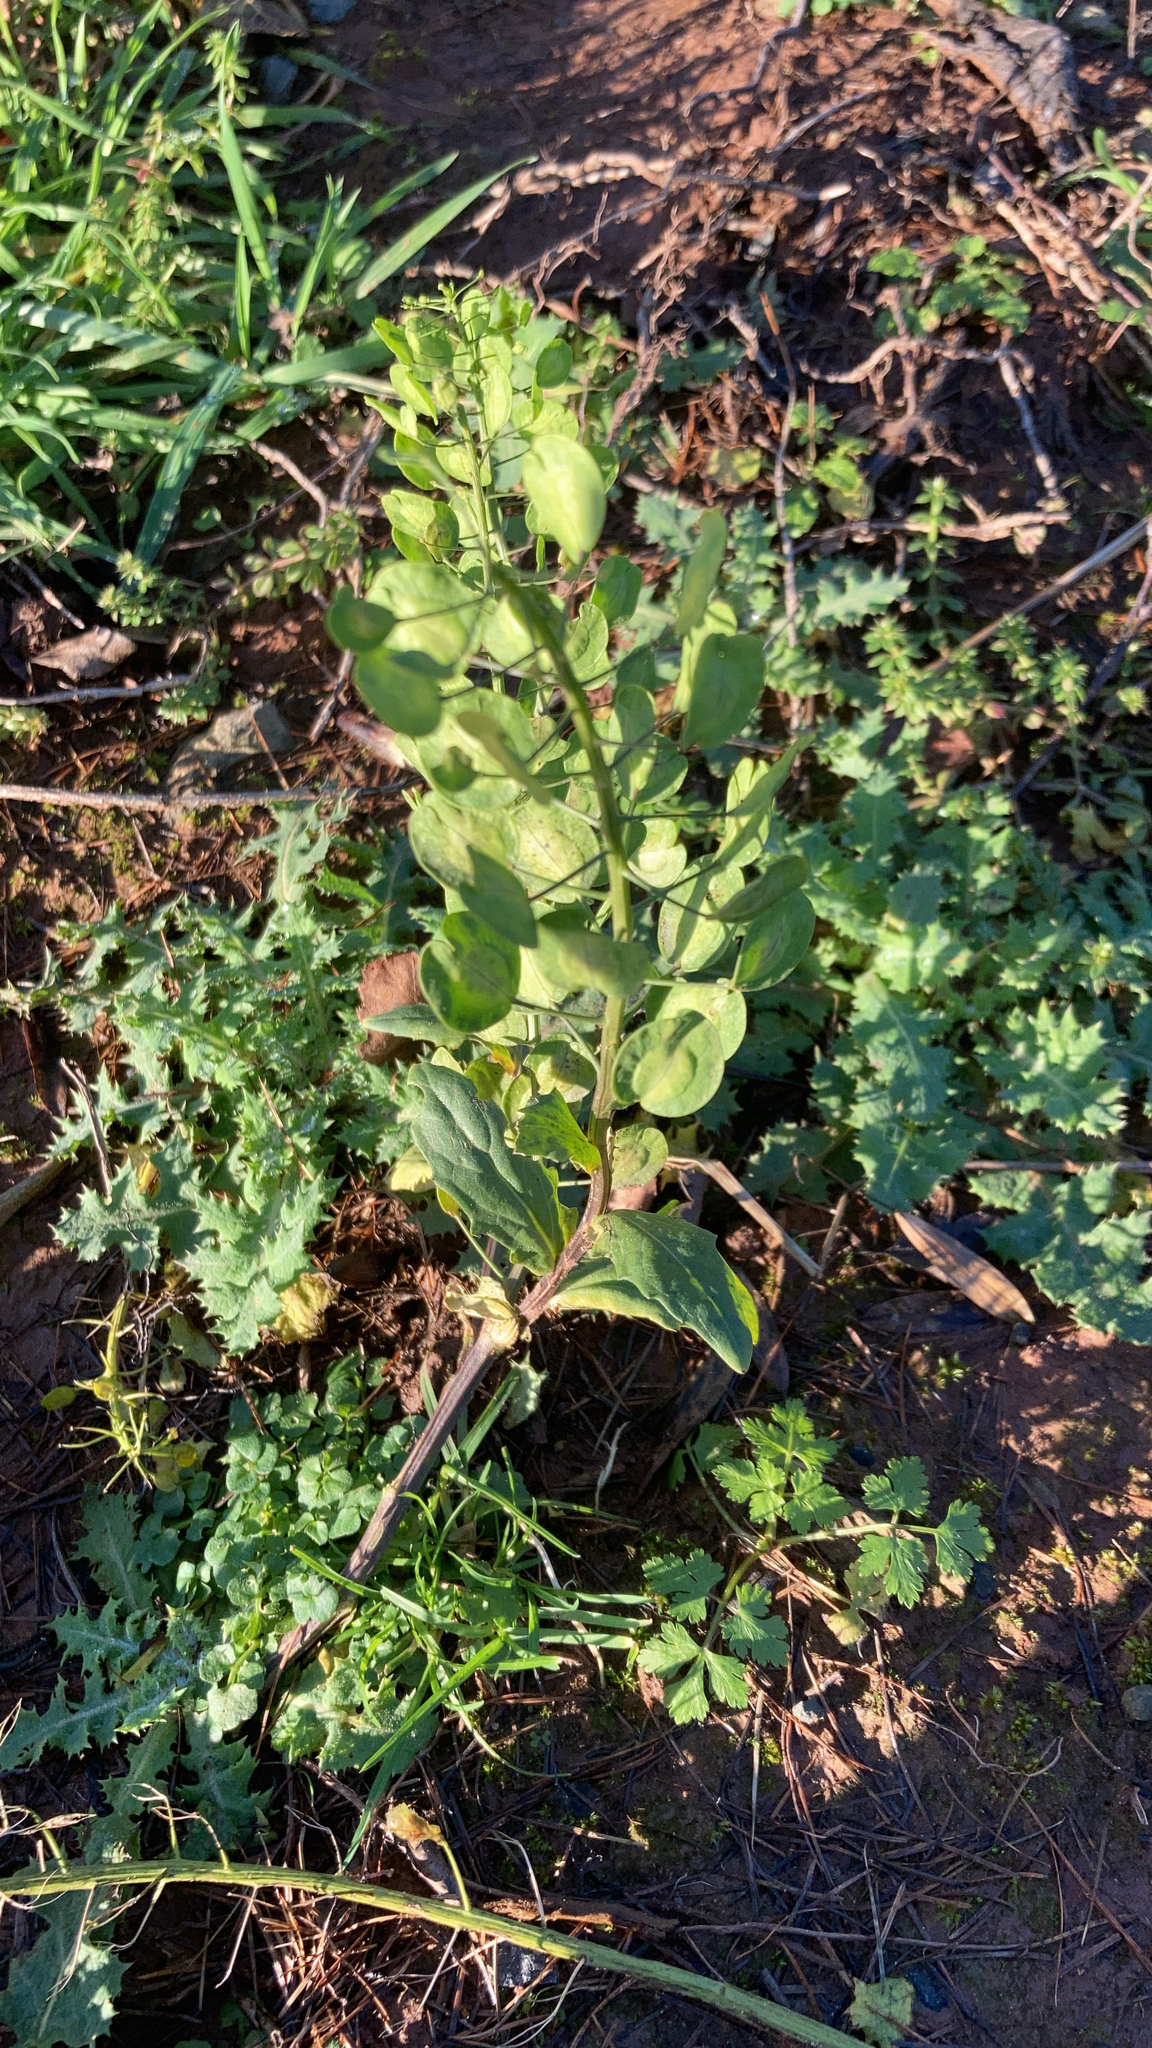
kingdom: Plantae
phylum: Tracheophyta
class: Magnoliopsida
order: Brassicales
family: Brassicaceae
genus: Thlaspi
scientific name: Thlaspi arvense
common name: Field pennycress
